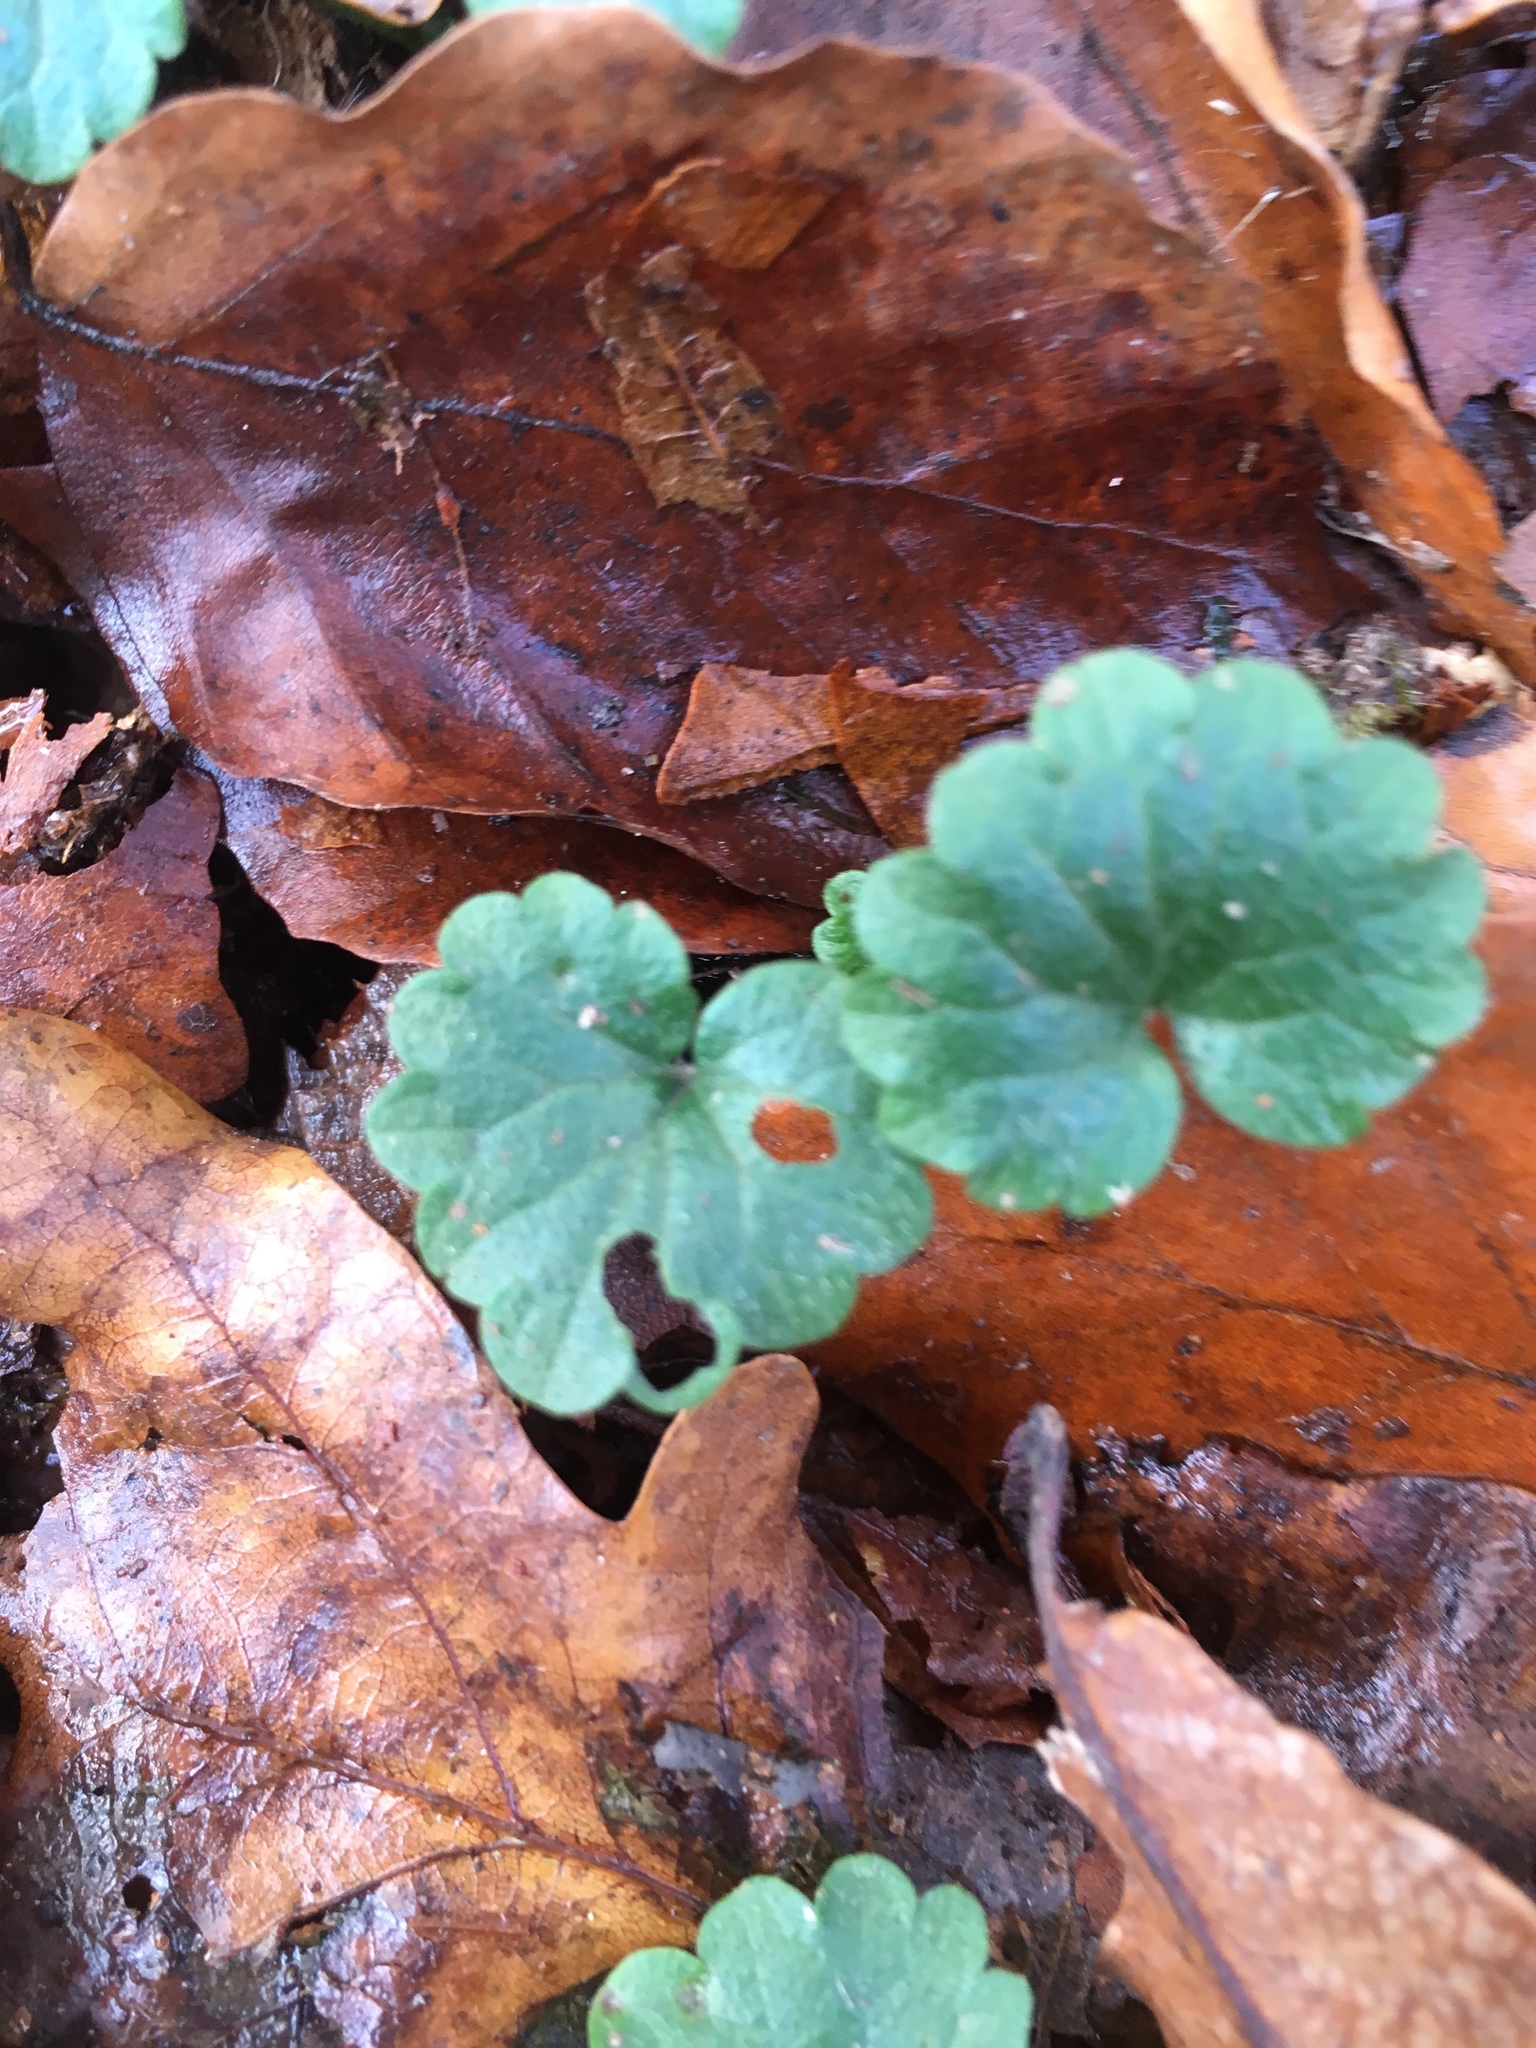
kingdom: Plantae
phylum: Tracheophyta
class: Magnoliopsida
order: Lamiales
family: Lamiaceae
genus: Glechoma
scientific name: Glechoma hederacea
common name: Ground ivy
